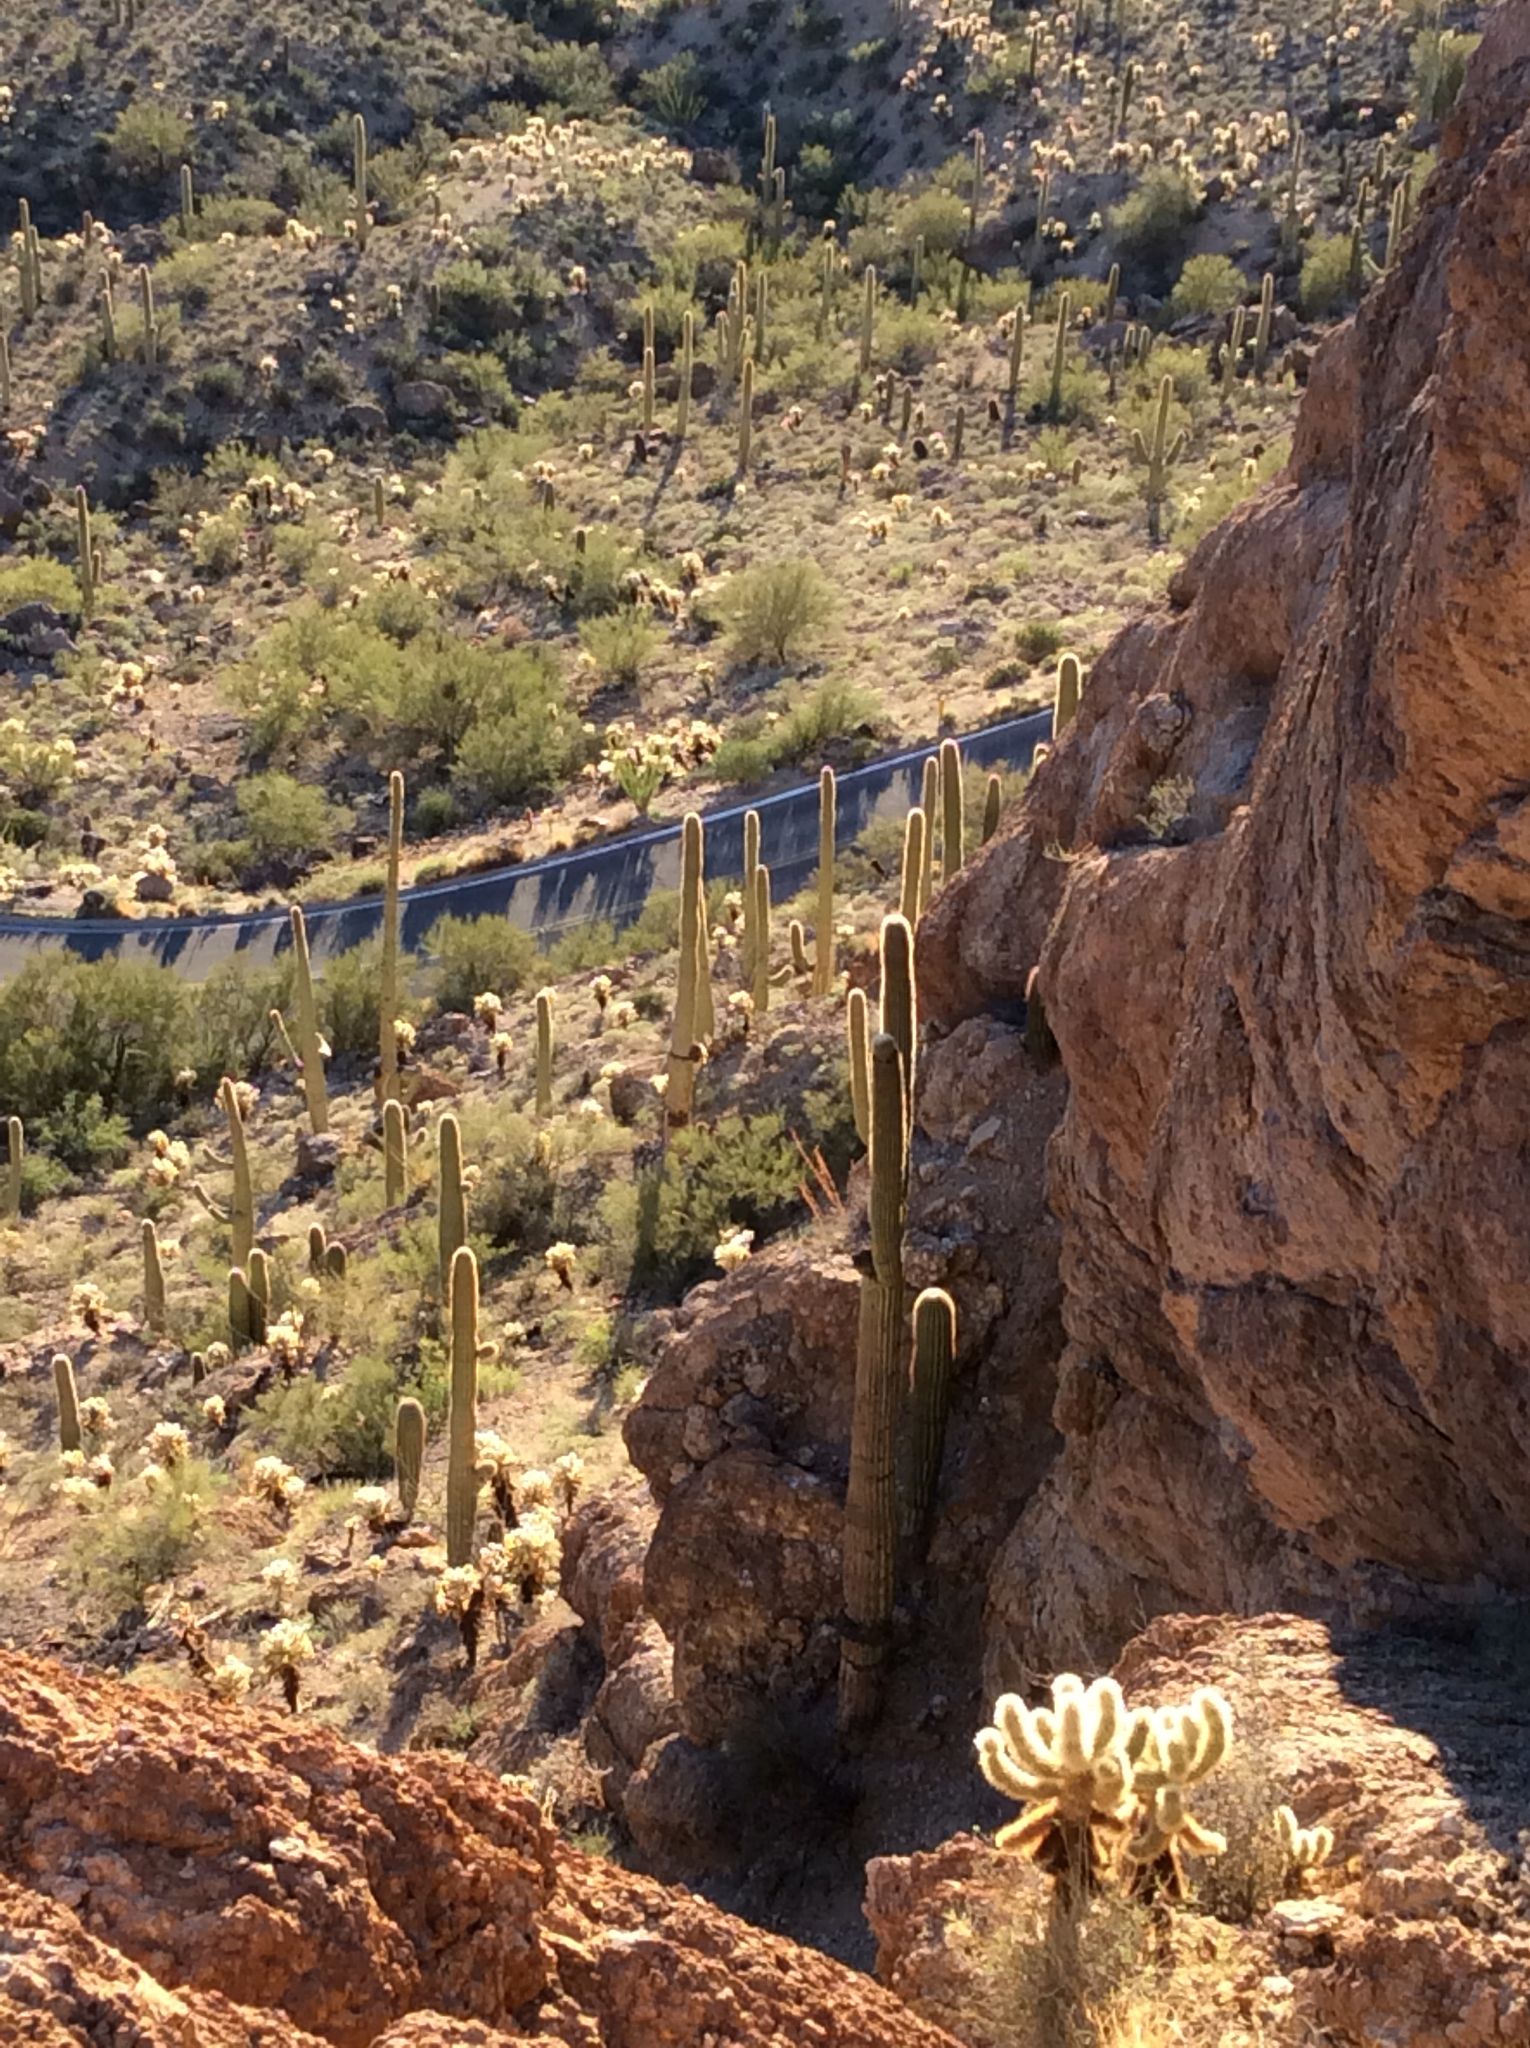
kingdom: Plantae
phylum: Tracheophyta
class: Magnoliopsida
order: Caryophyllales
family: Cactaceae
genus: Carnegiea
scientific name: Carnegiea gigantea
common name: Saguaro
